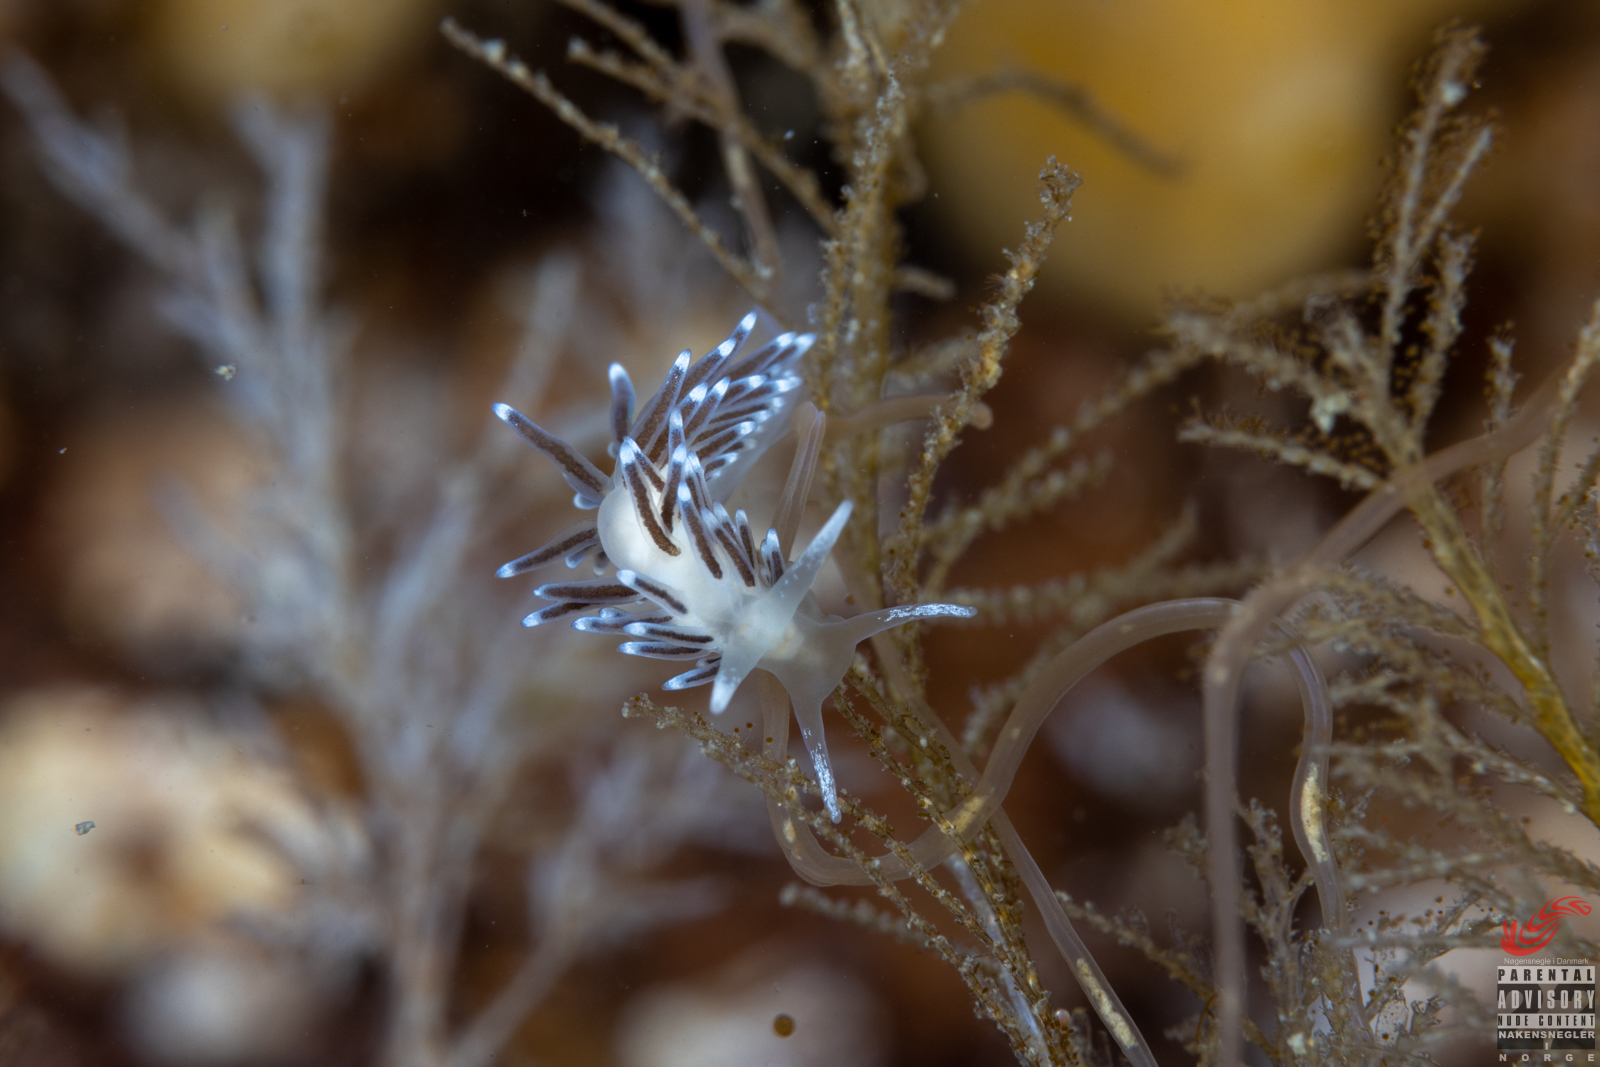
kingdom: Animalia
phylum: Mollusca
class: Gastropoda
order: Nudibranchia
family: Cuthonellidae
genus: Cuthonella
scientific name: Cuthonella concinna
